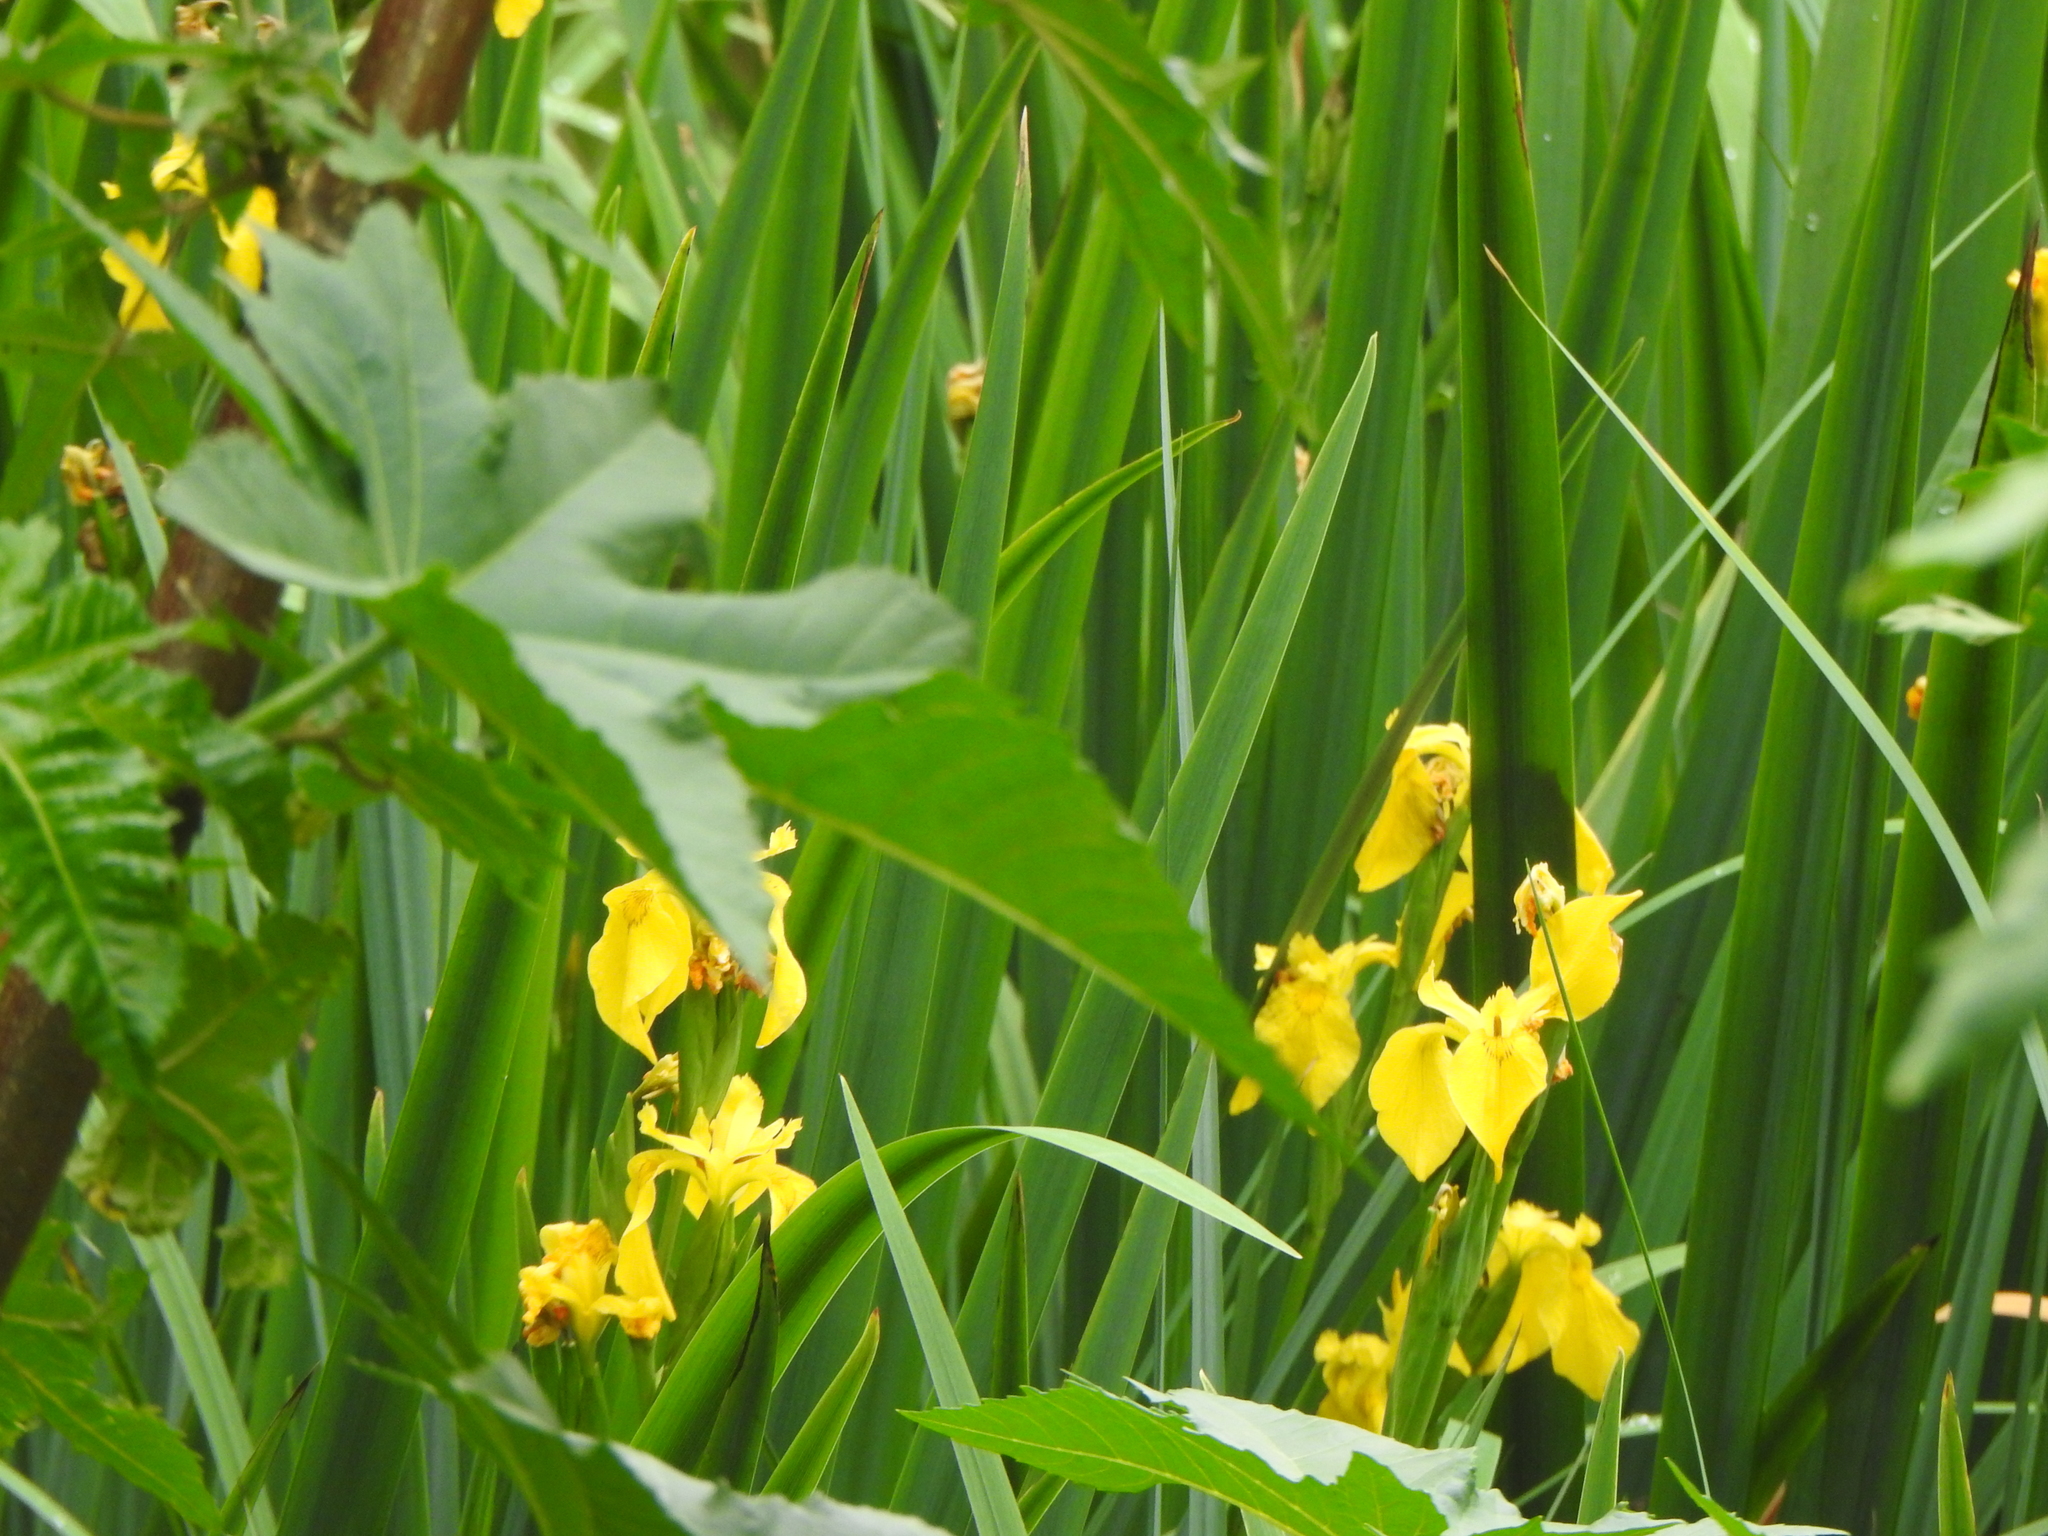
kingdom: Plantae
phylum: Tracheophyta
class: Liliopsida
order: Asparagales
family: Iridaceae
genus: Iris
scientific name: Iris pseudacorus
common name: Yellow flag
